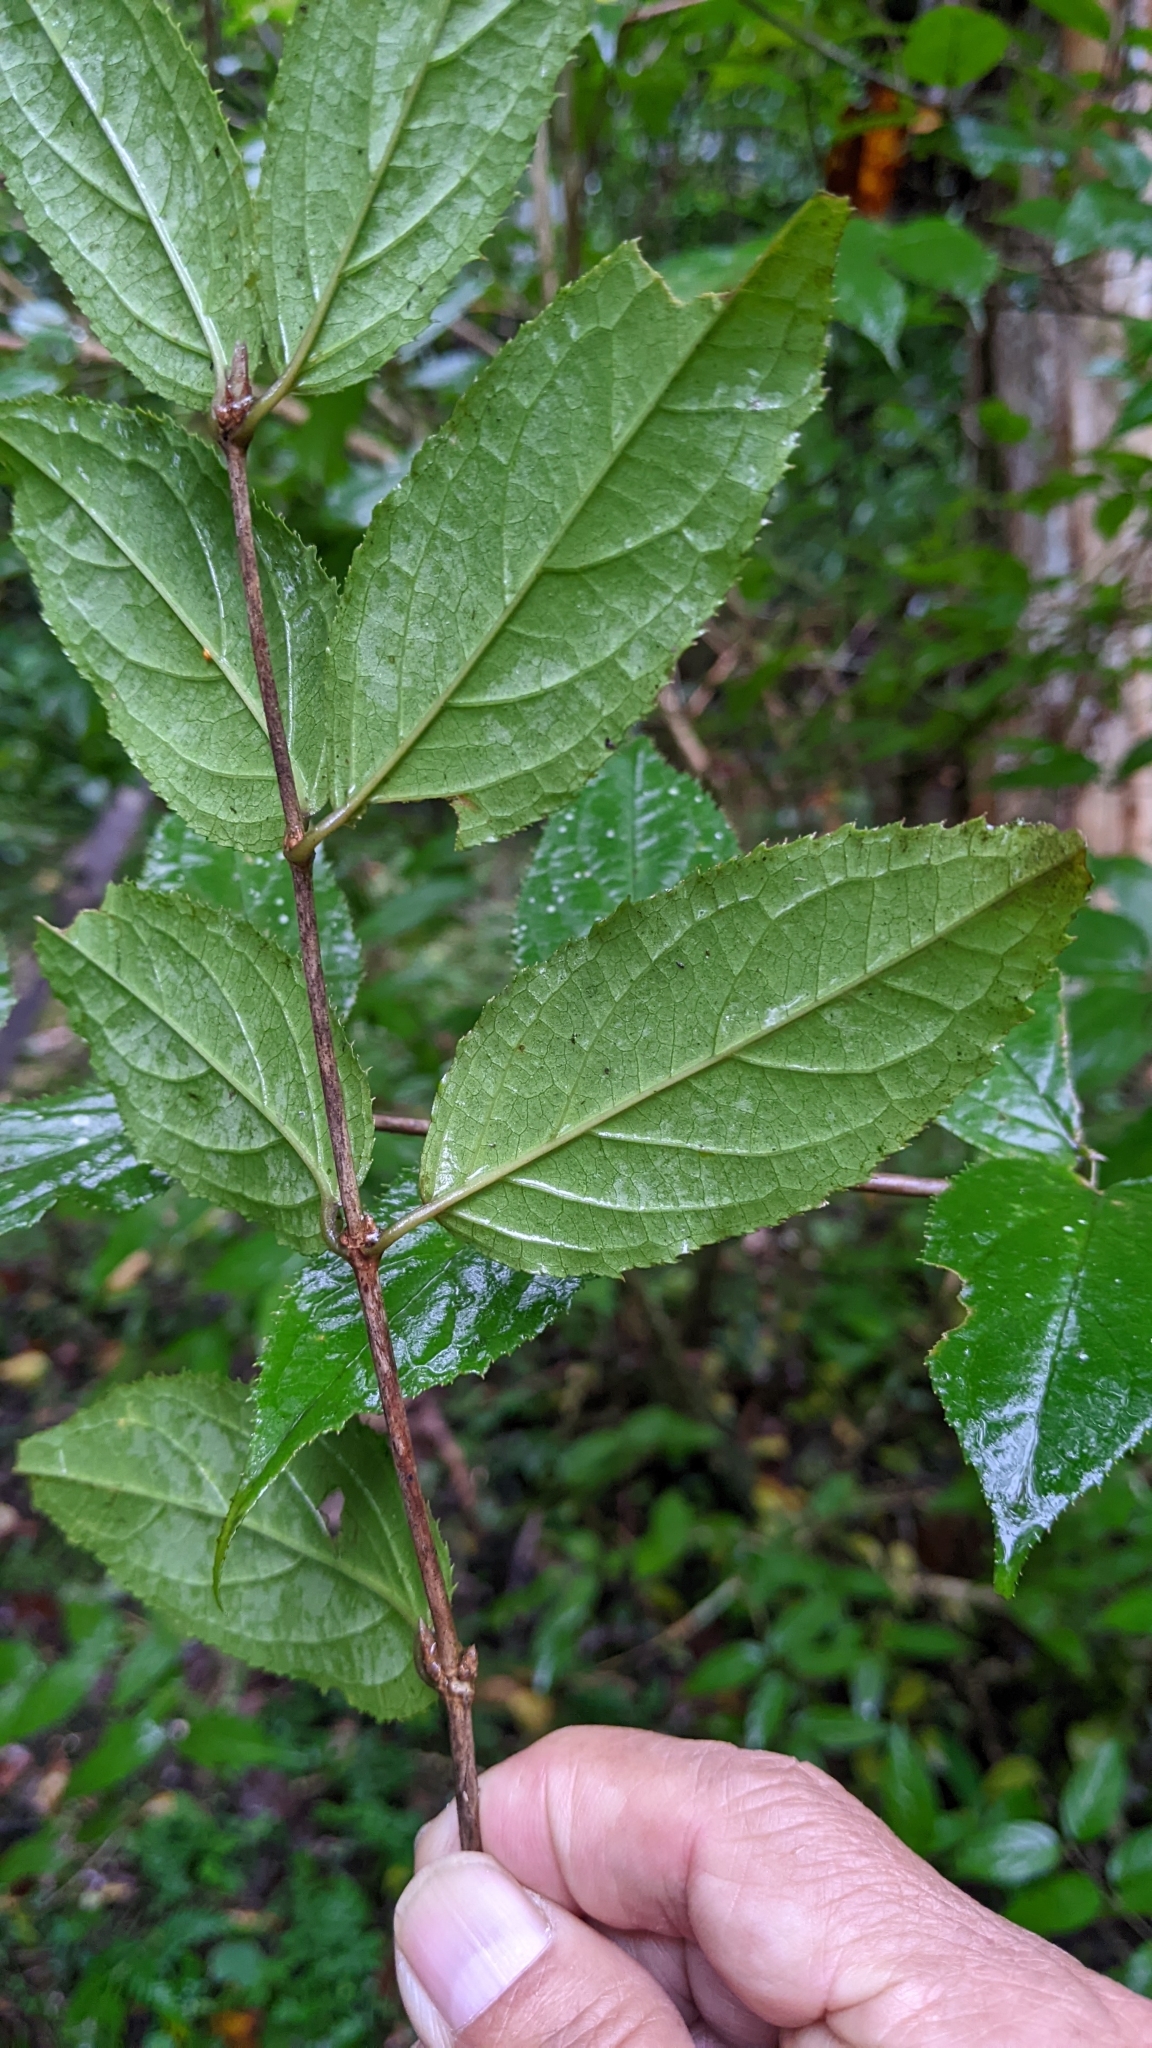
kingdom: Plantae
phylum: Tracheophyta
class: Magnoliopsida
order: Cornales
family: Hydrangeaceae
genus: Deutzia
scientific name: Deutzia taiwanensis
